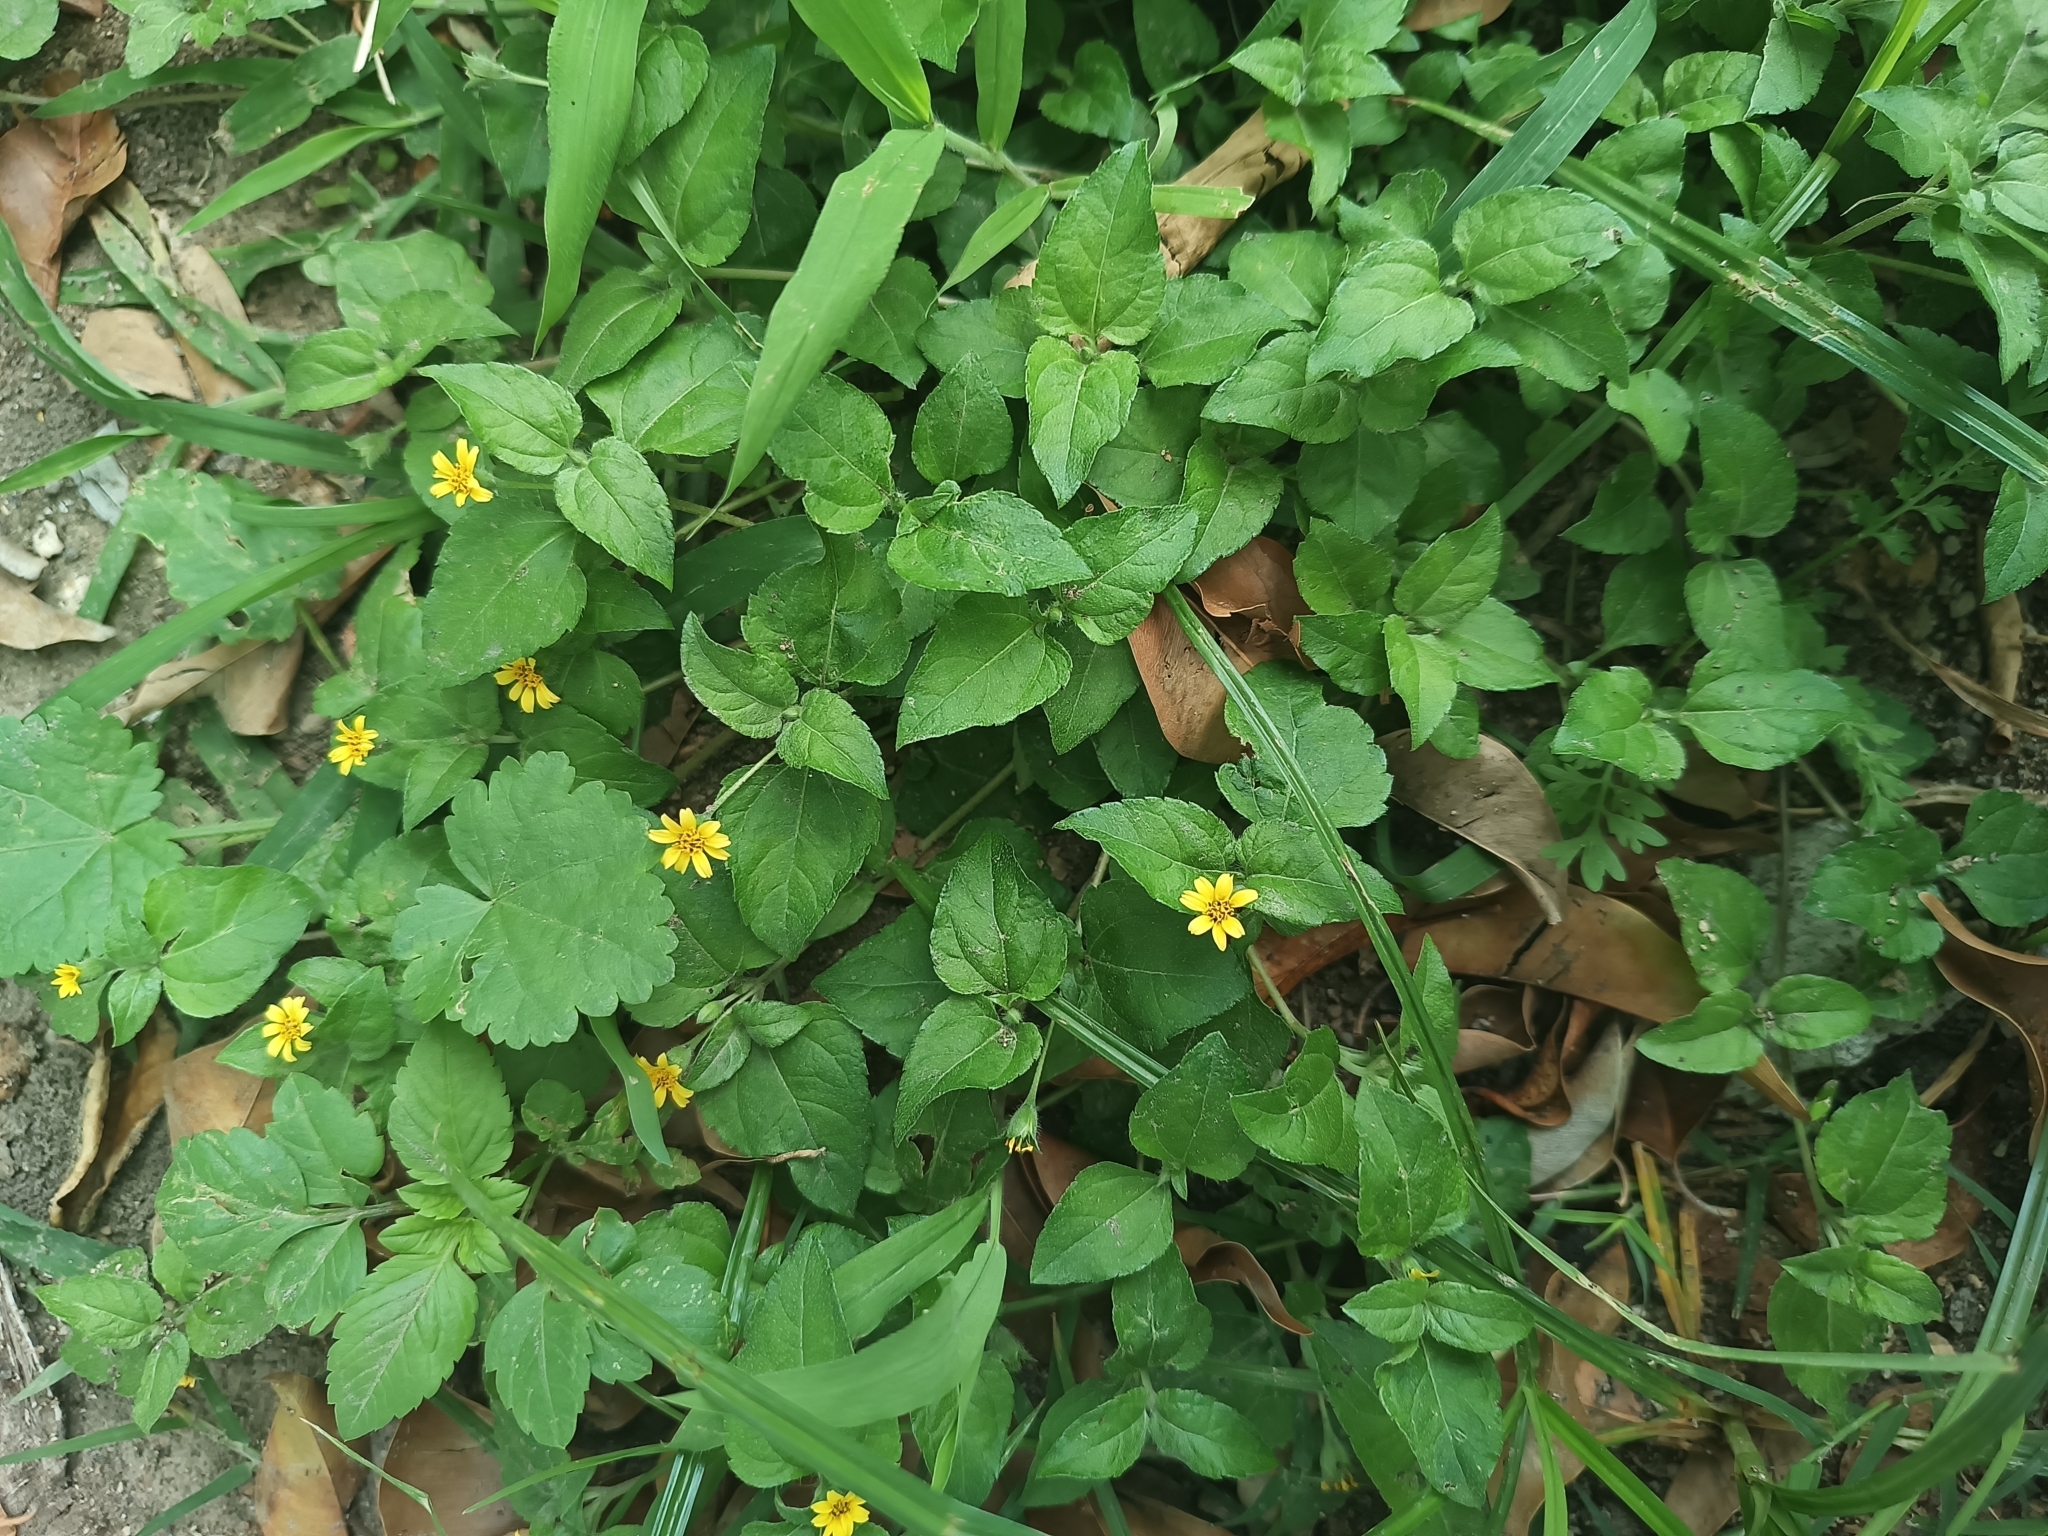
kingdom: Plantae
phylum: Tracheophyta
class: Magnoliopsida
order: Asterales
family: Asteraceae
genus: Calyptocarpus
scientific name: Calyptocarpus vialis
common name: Straggler daisy
